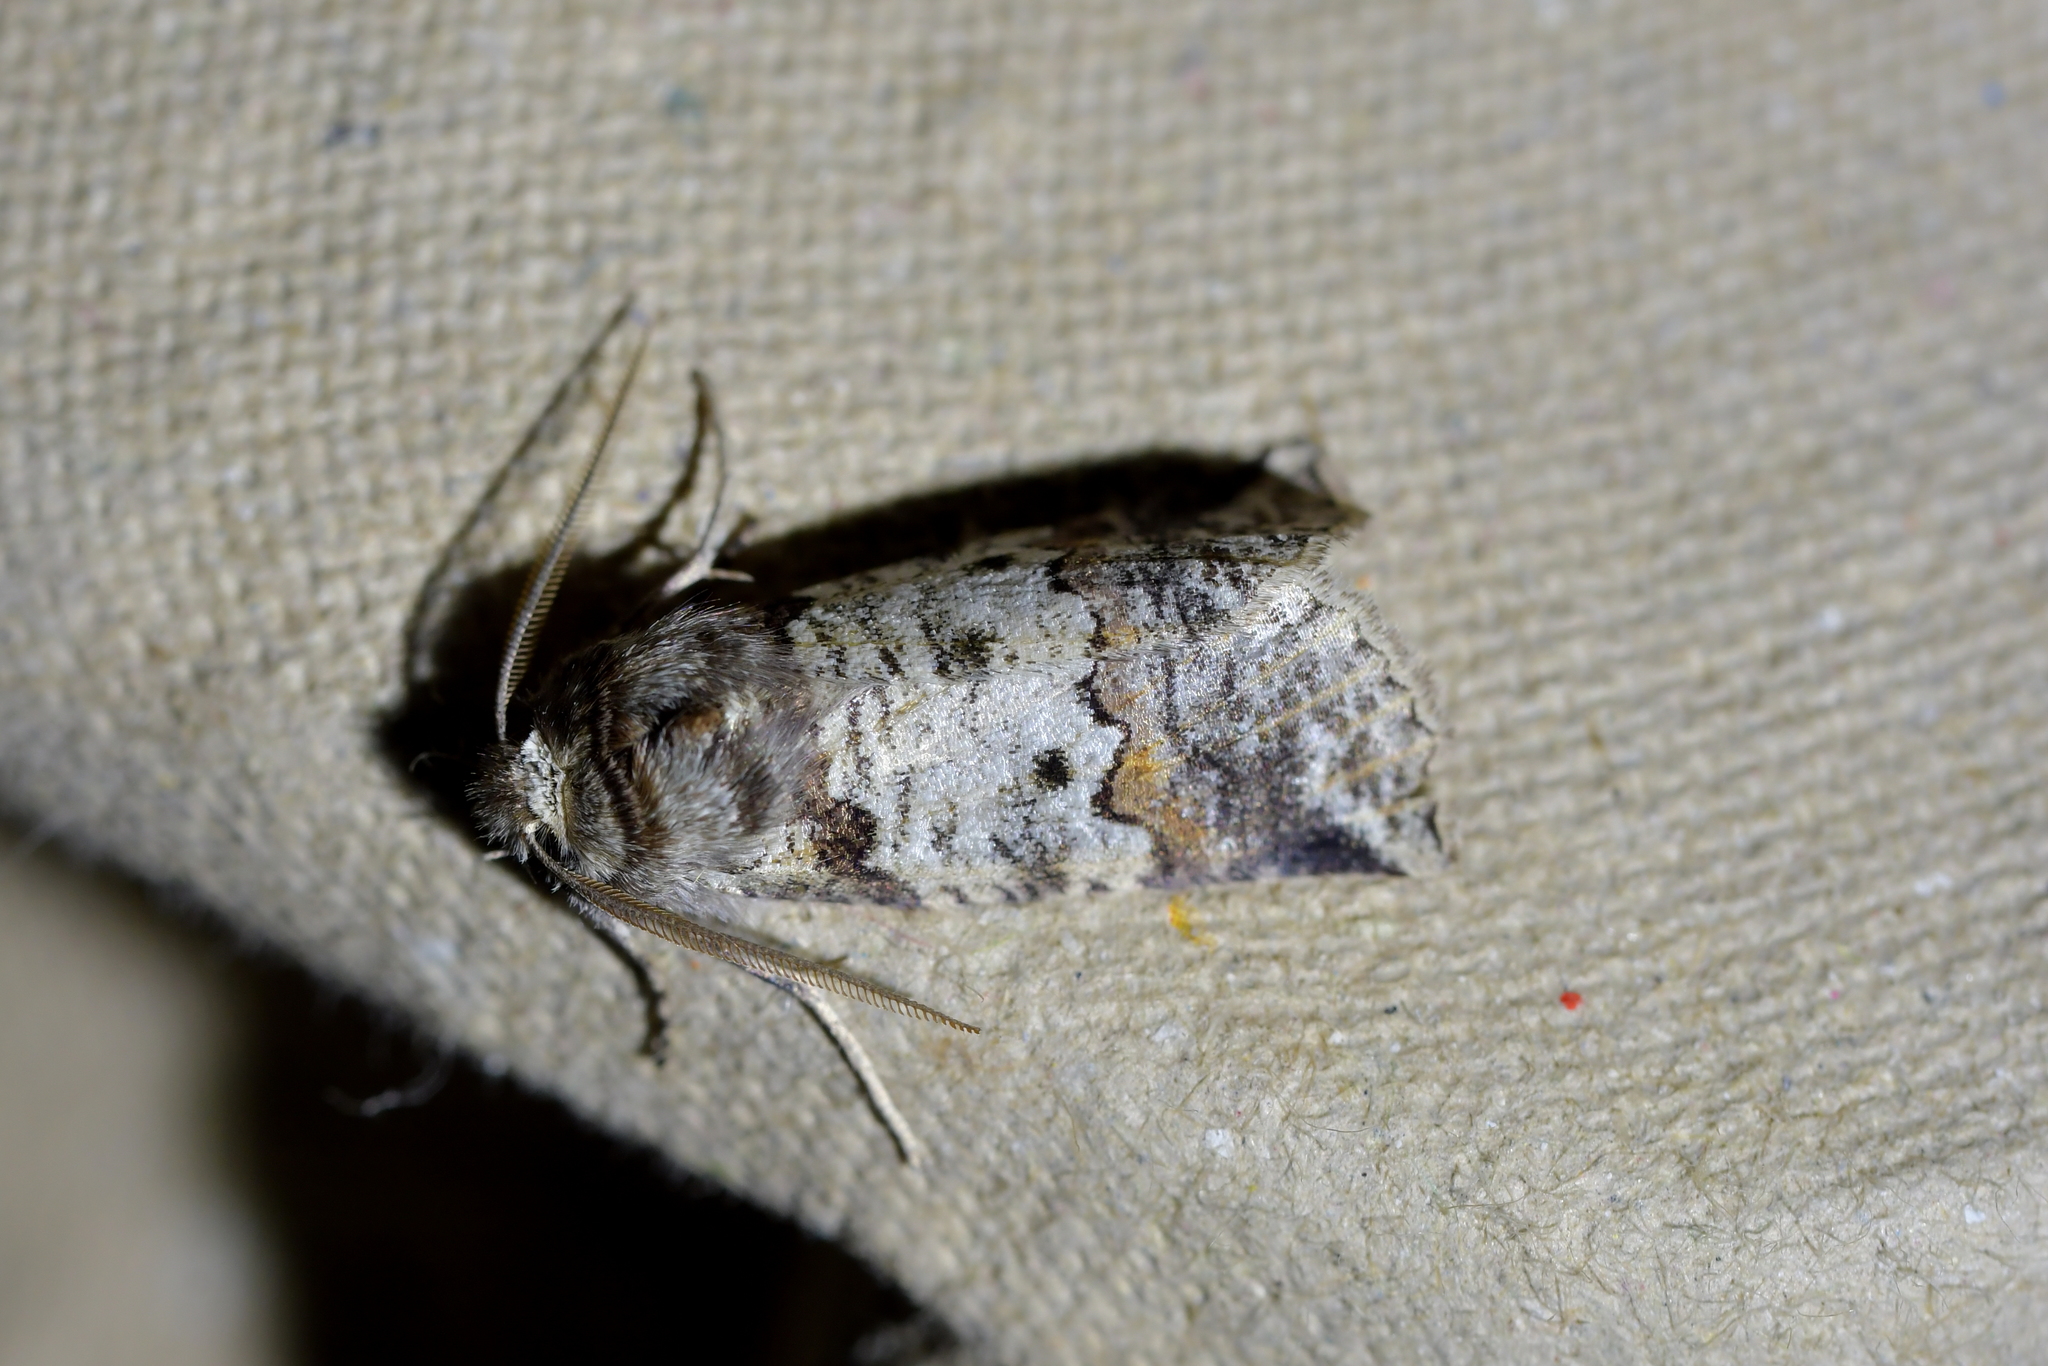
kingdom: Animalia
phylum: Arthropoda
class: Insecta
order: Lepidoptera
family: Geometridae
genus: Declana
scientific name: Declana
